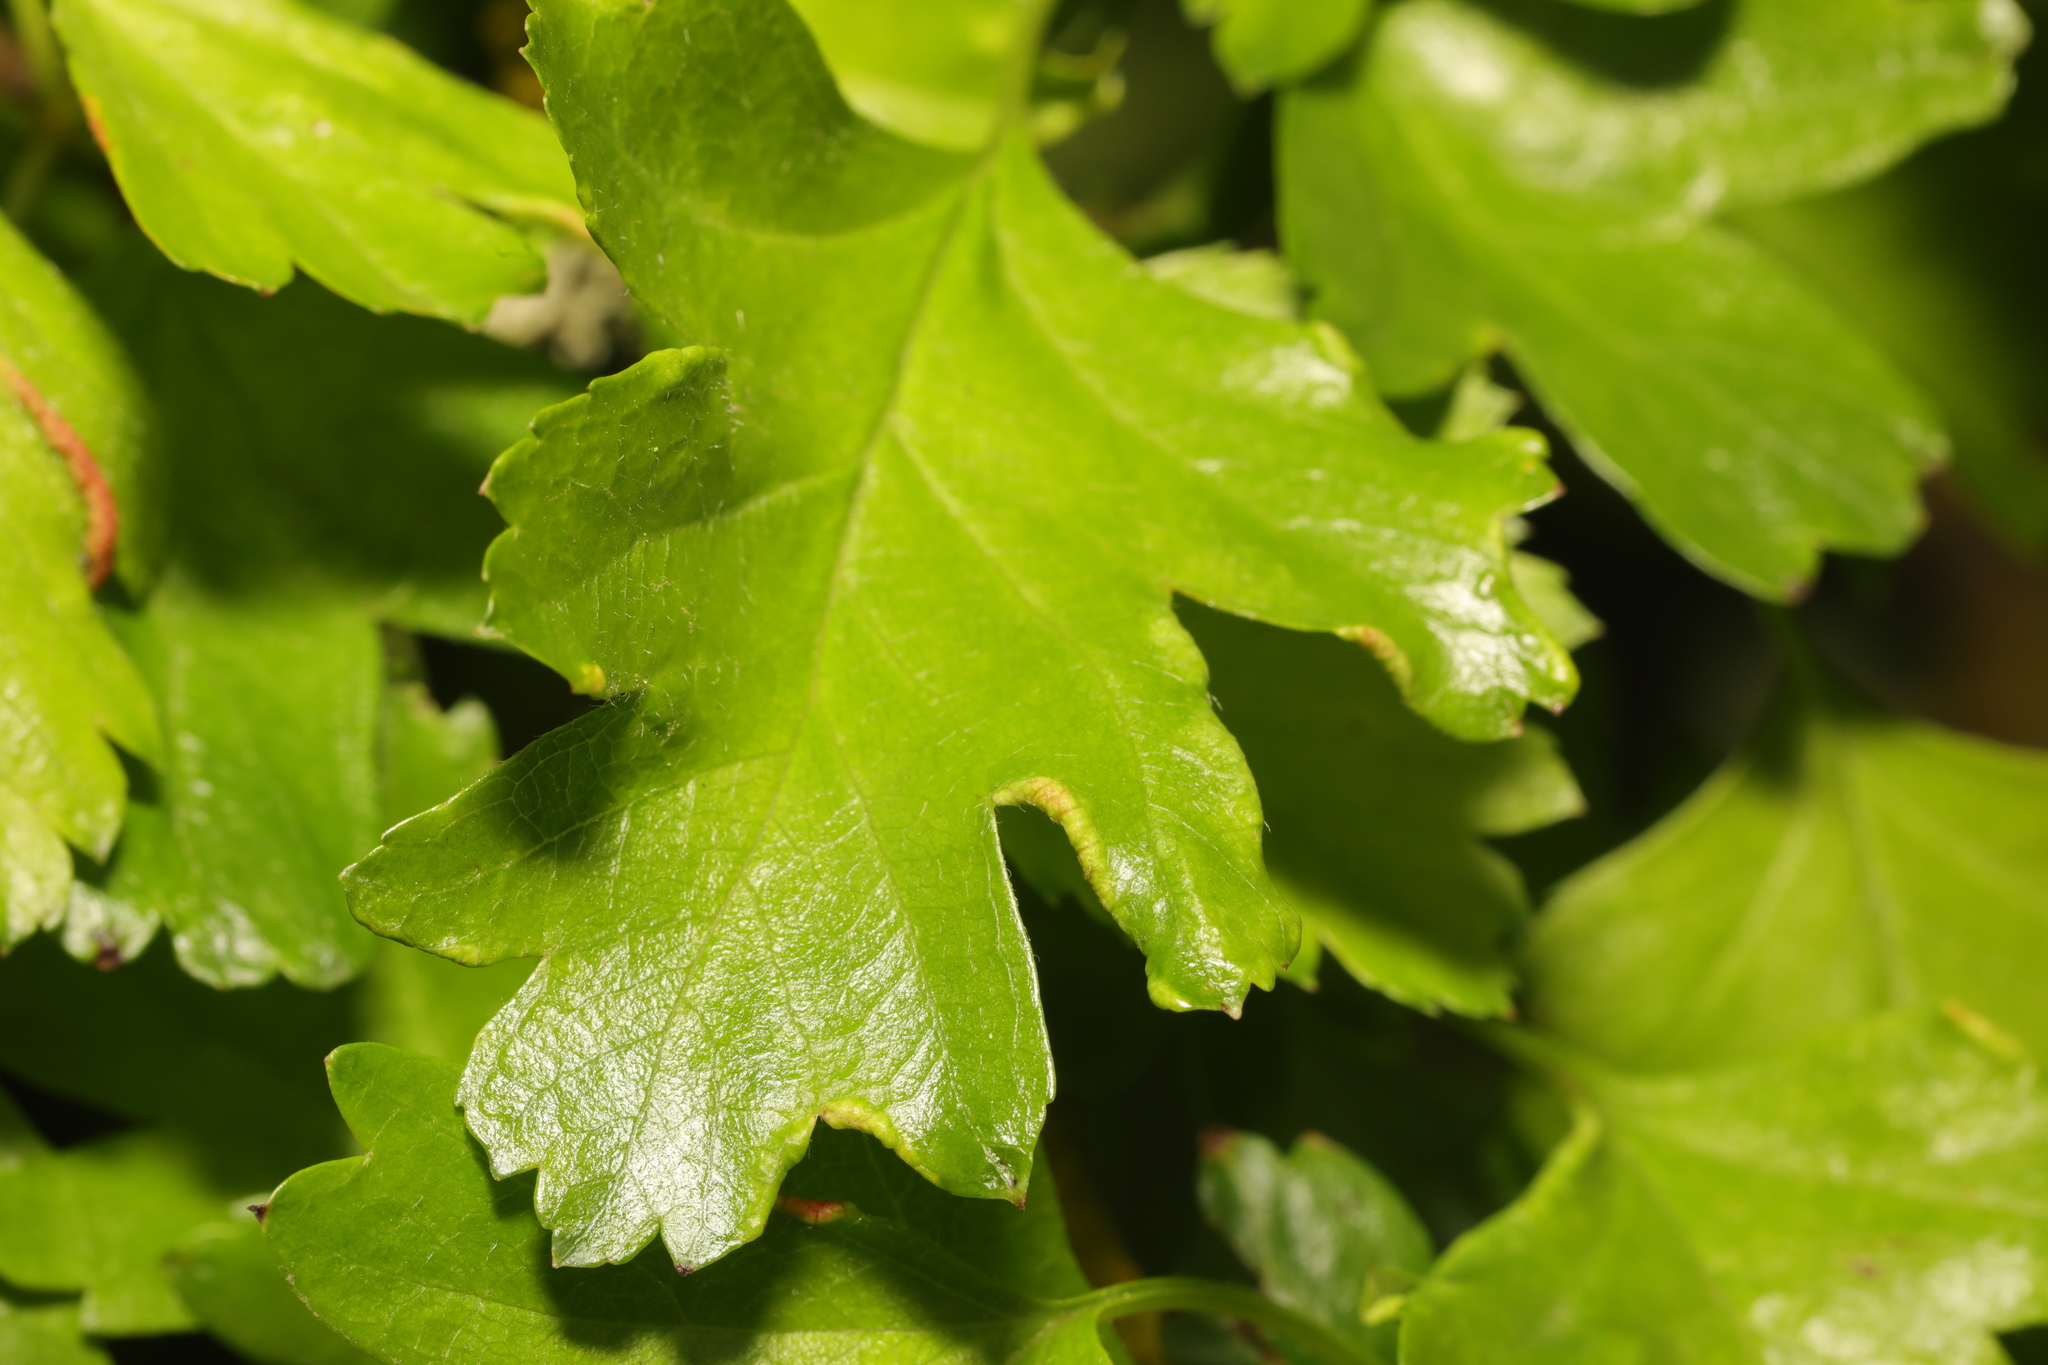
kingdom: Plantae
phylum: Tracheophyta
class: Magnoliopsida
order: Rosales
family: Rosaceae
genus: Crataegus
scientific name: Crataegus monogyna
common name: Hawthorn
